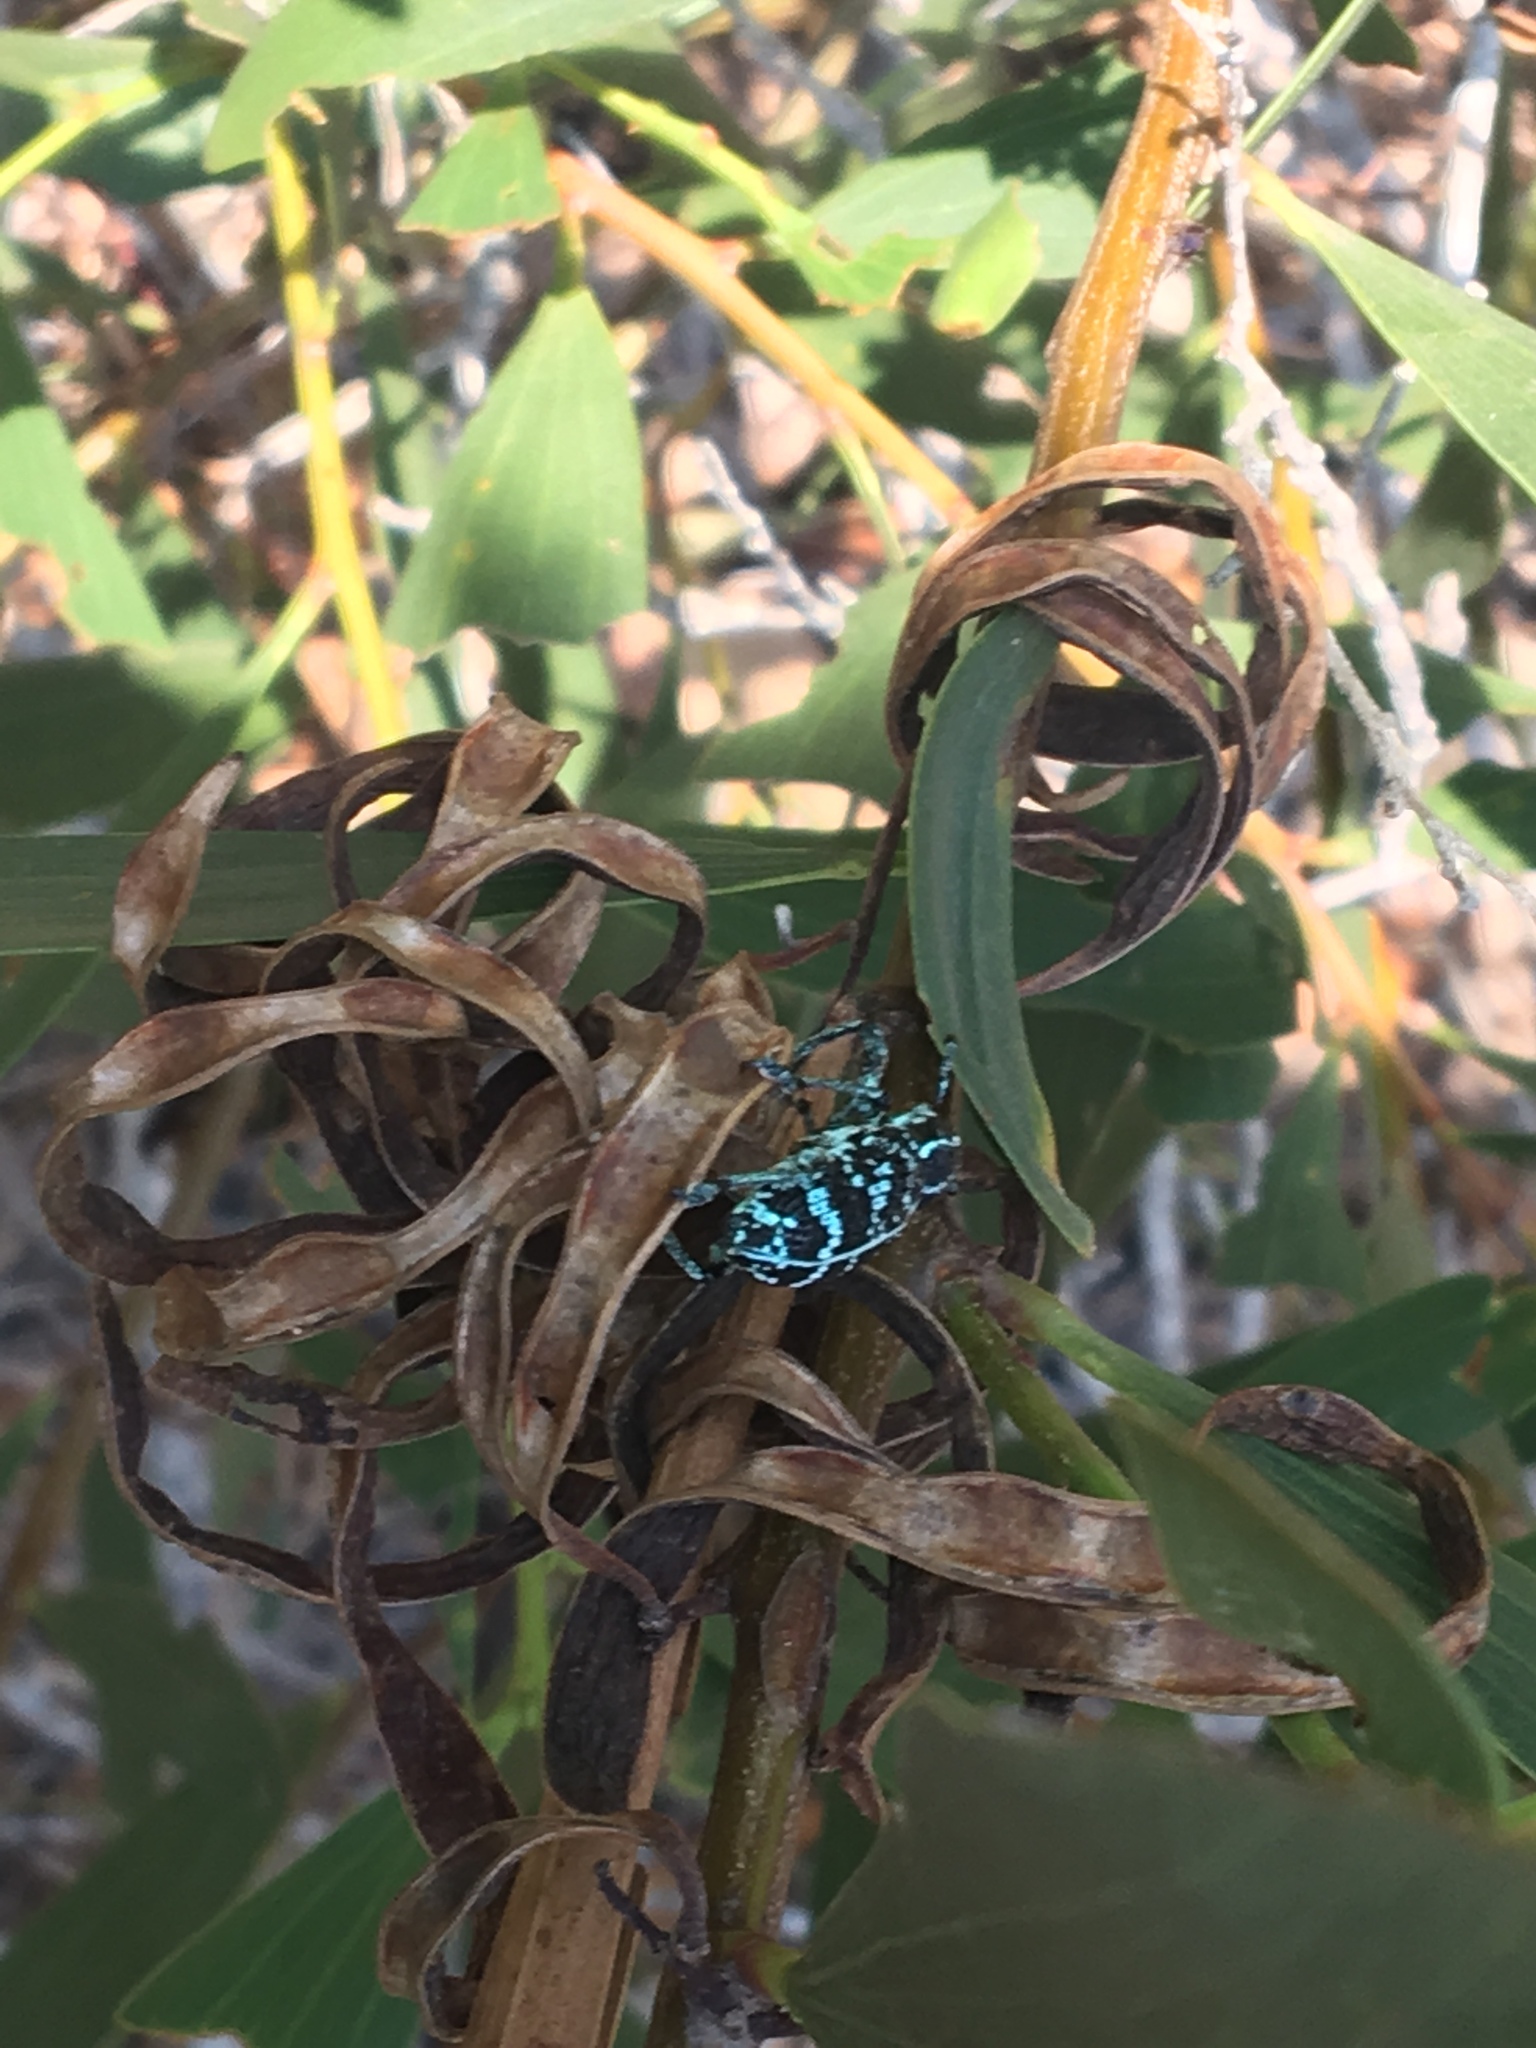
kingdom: Animalia
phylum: Arthropoda
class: Insecta
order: Coleoptera
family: Curculionidae
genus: Chrysolopus
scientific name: Chrysolopus spectabilis
